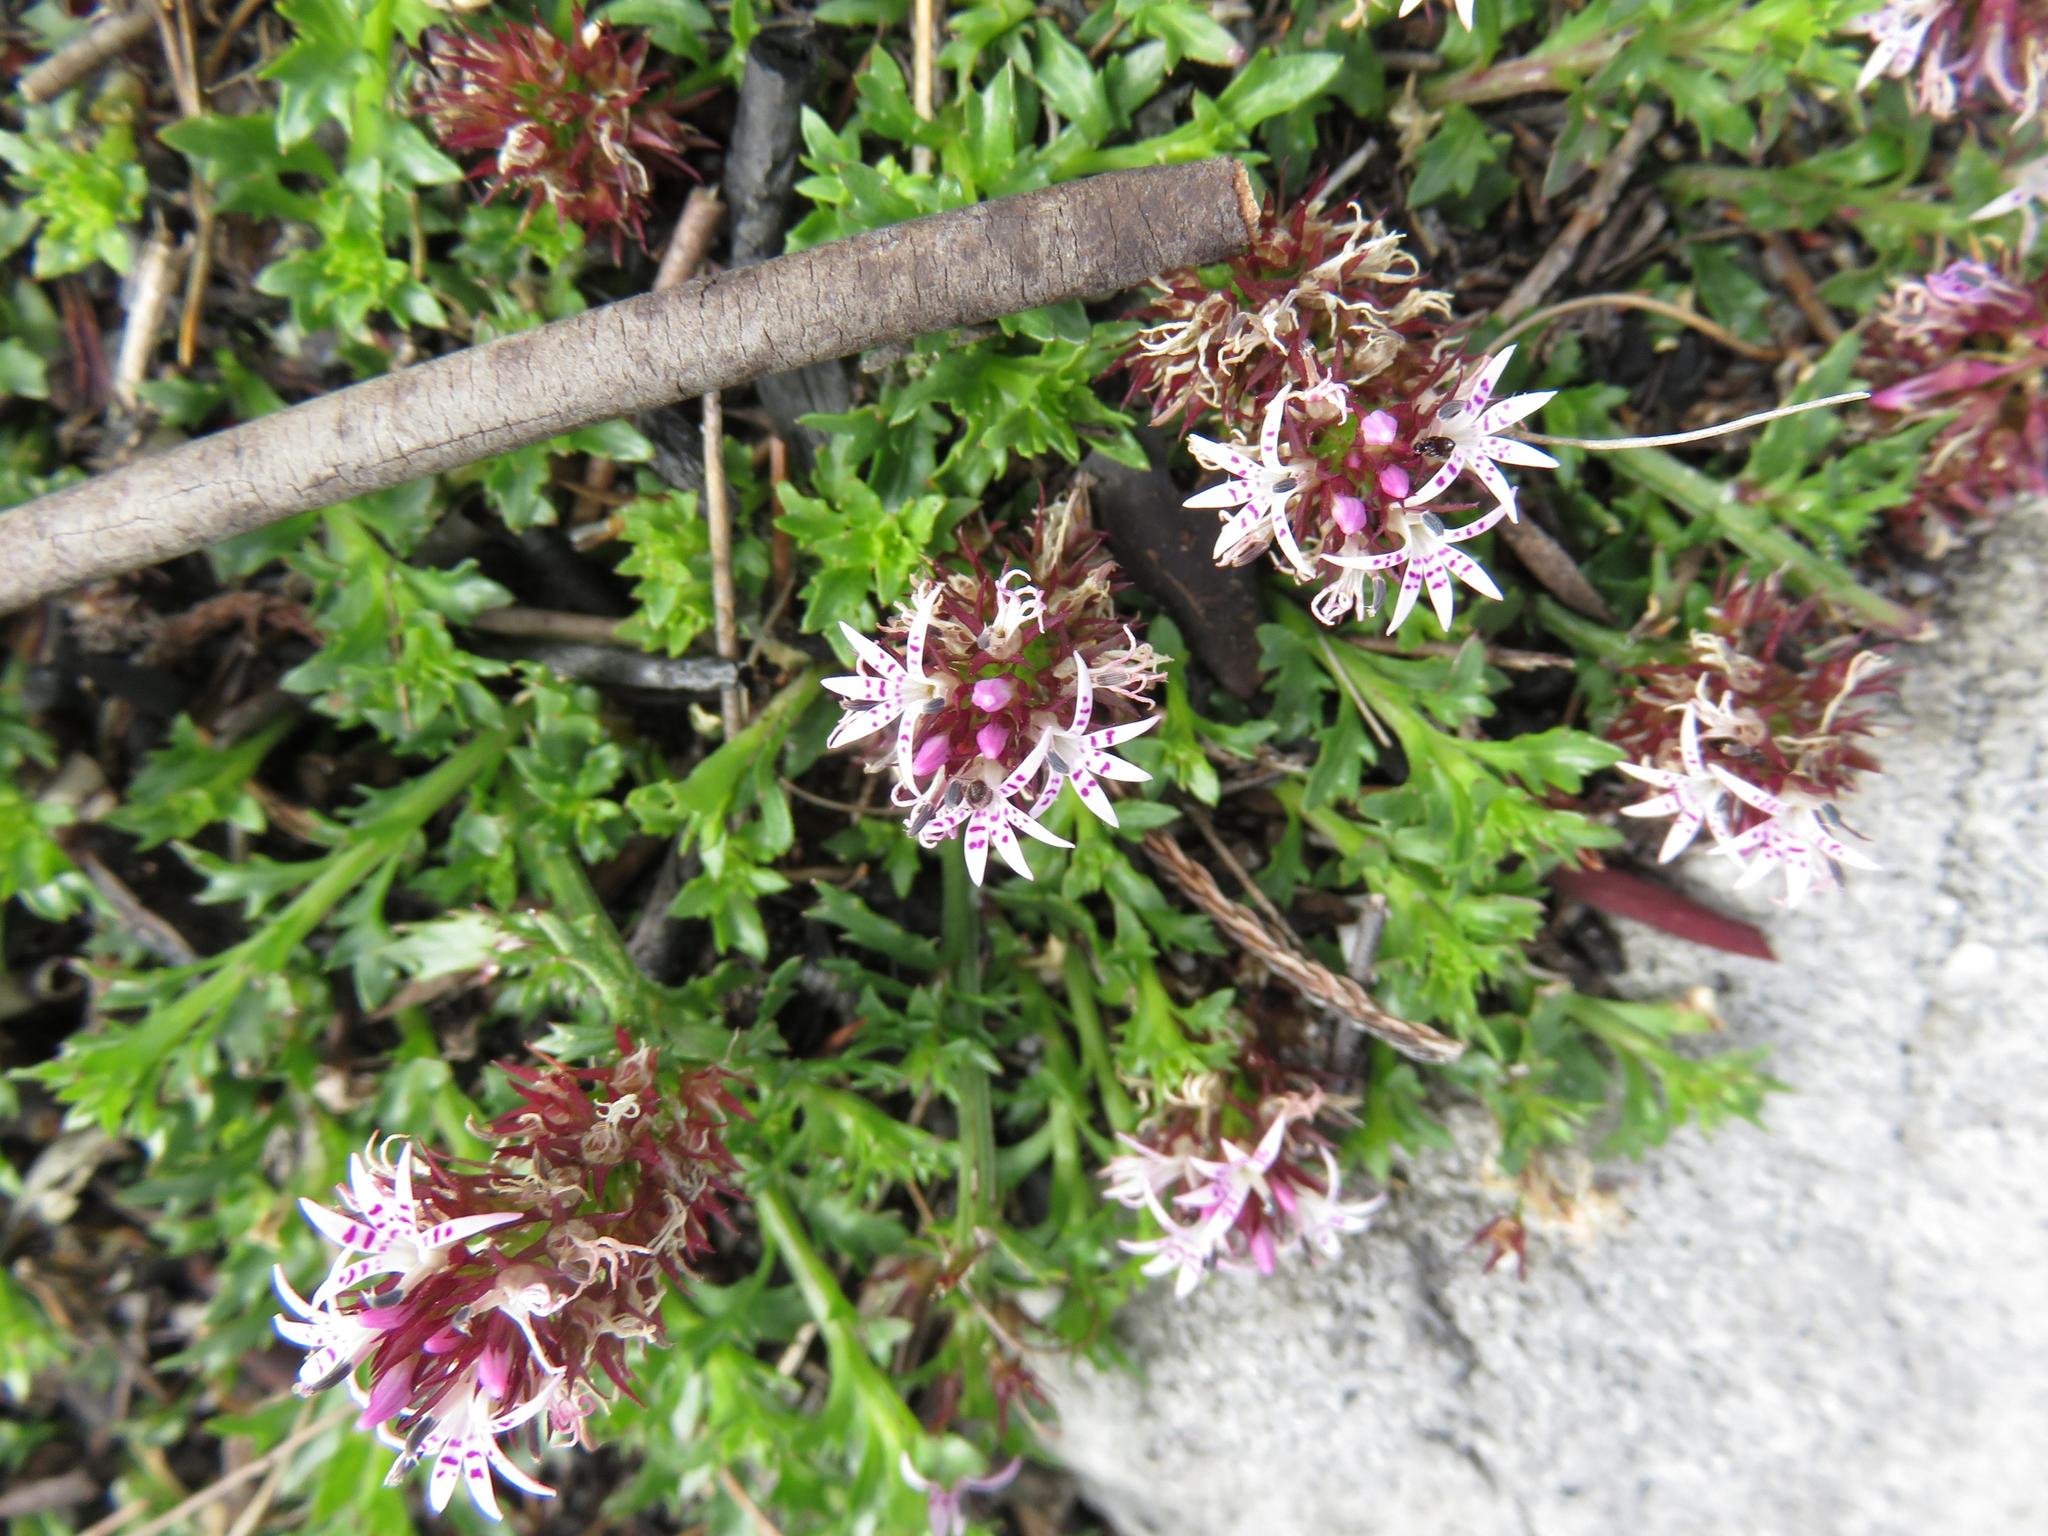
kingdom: Plantae
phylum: Tracheophyta
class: Magnoliopsida
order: Asterales
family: Campanulaceae
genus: Lobelia
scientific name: Lobelia jasionoides
